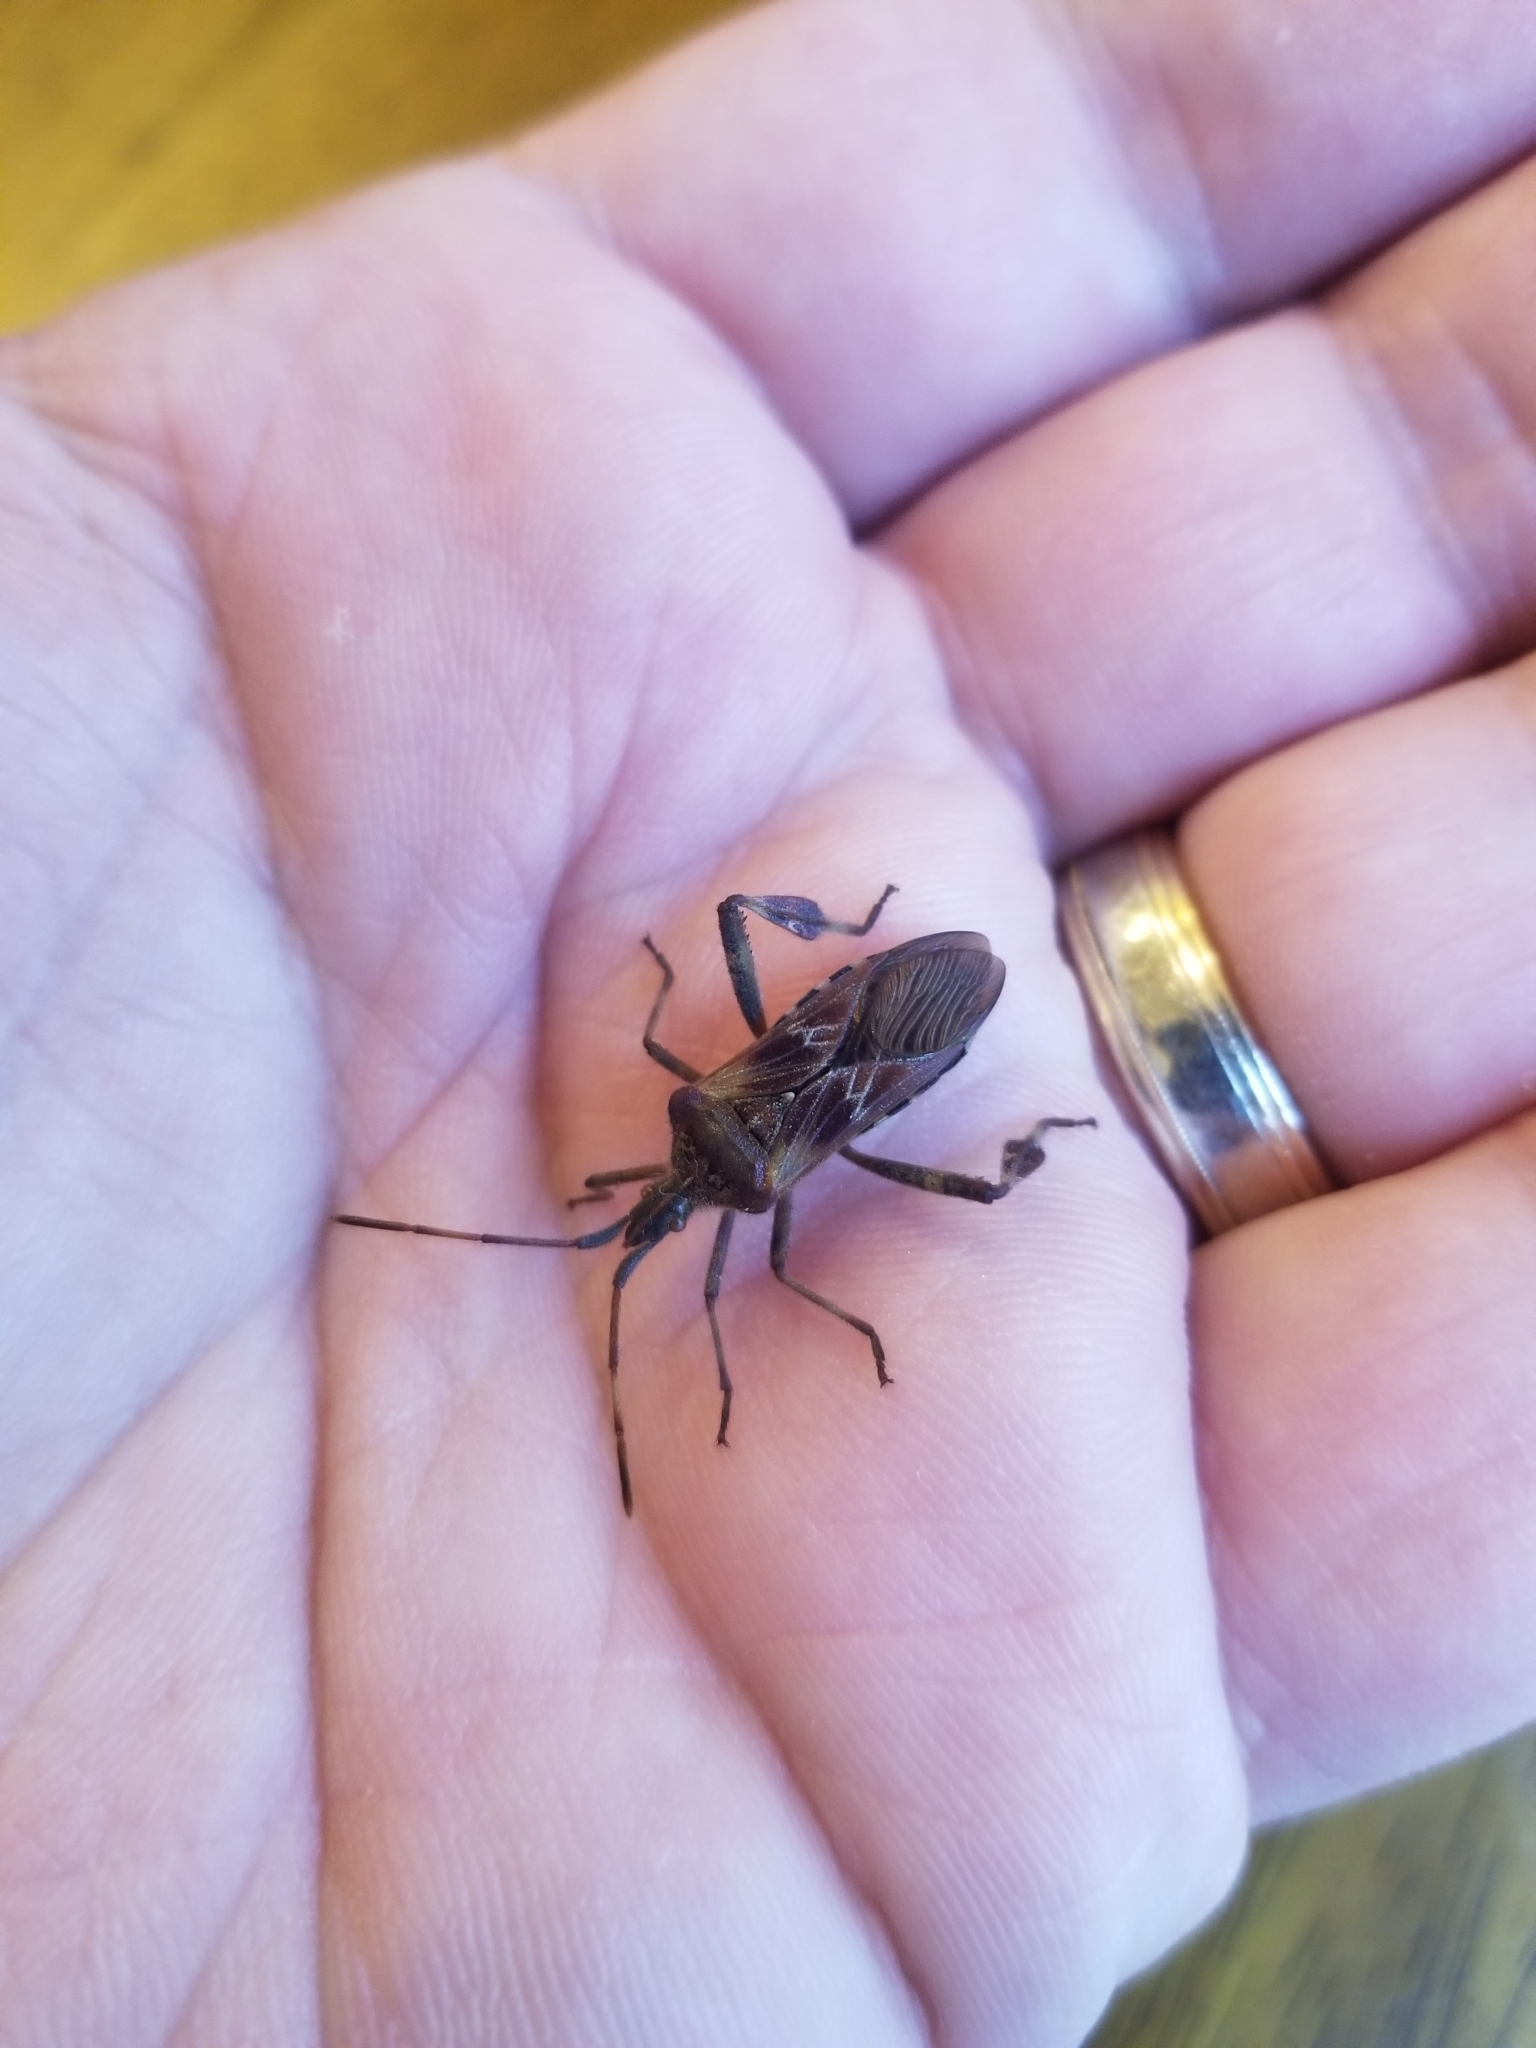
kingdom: Animalia
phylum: Arthropoda
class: Insecta
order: Hemiptera
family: Coreidae
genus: Leptoglossus
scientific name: Leptoglossus occidentalis
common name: Western conifer-seed bug
